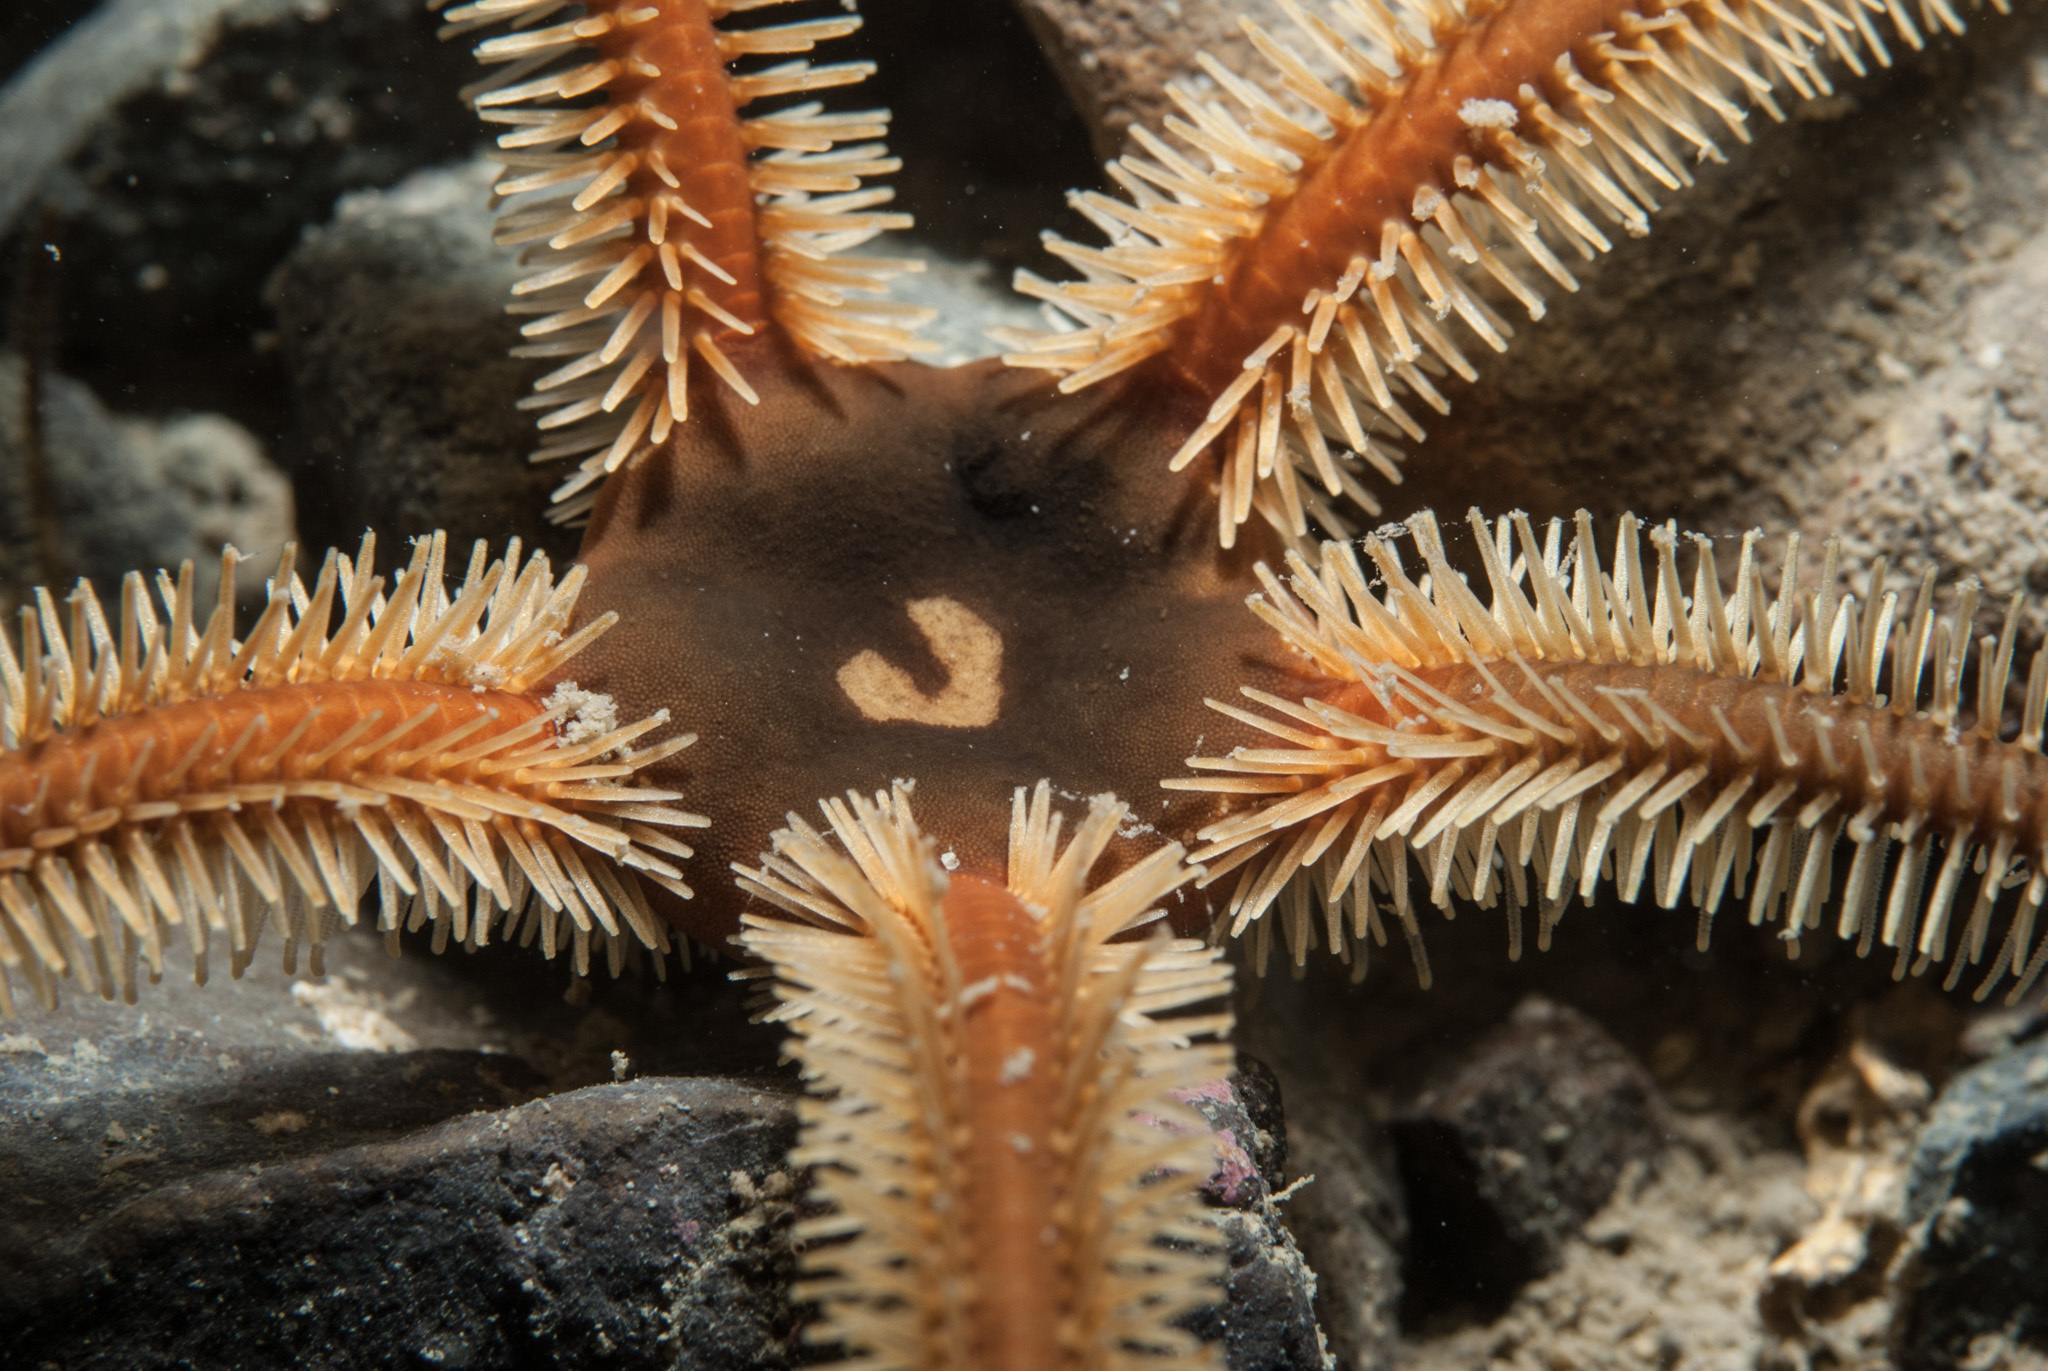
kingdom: Animalia
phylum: Echinodermata
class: Ophiuroidea
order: Ophiacanthida
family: Ophiotomidae
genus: Ophiocomina
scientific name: Ophiocomina nigra
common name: Black brittle star
